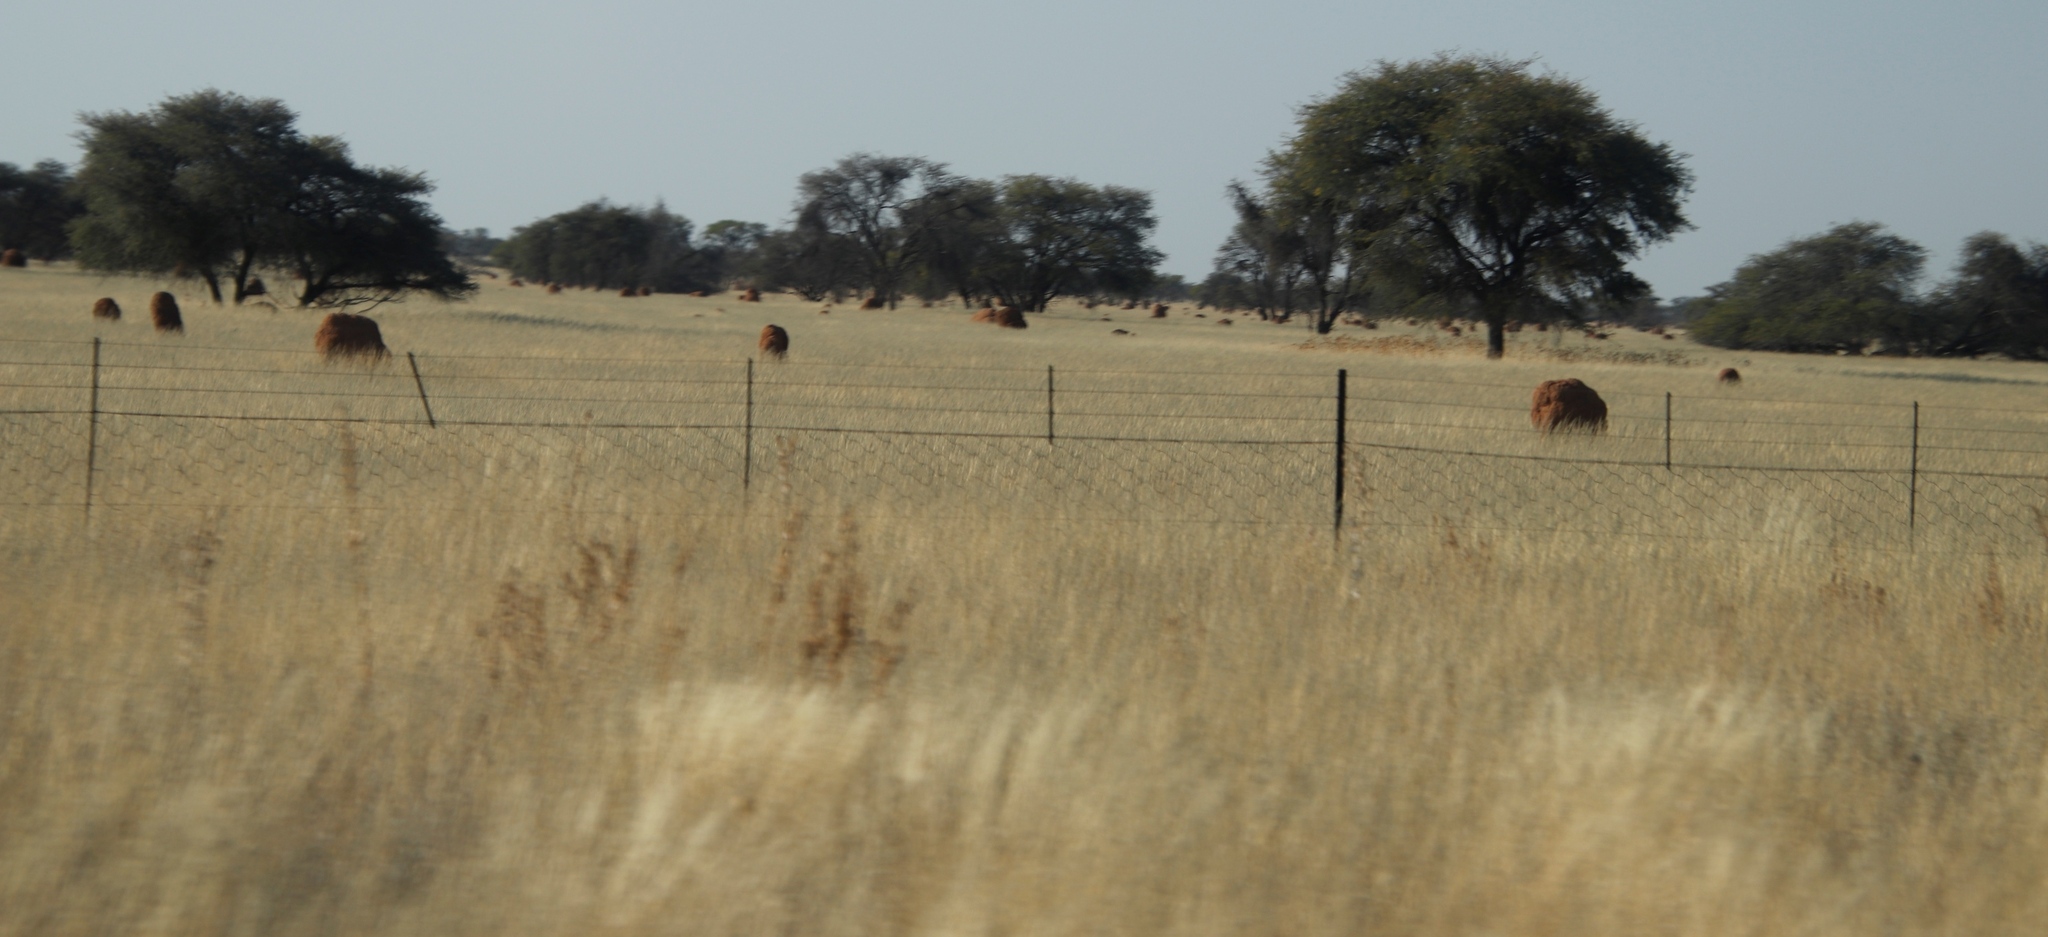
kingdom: Plantae
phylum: Tracheophyta
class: Magnoliopsida
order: Fabales
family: Fabaceae
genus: Vachellia
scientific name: Vachellia erioloba
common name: Camel thorn
